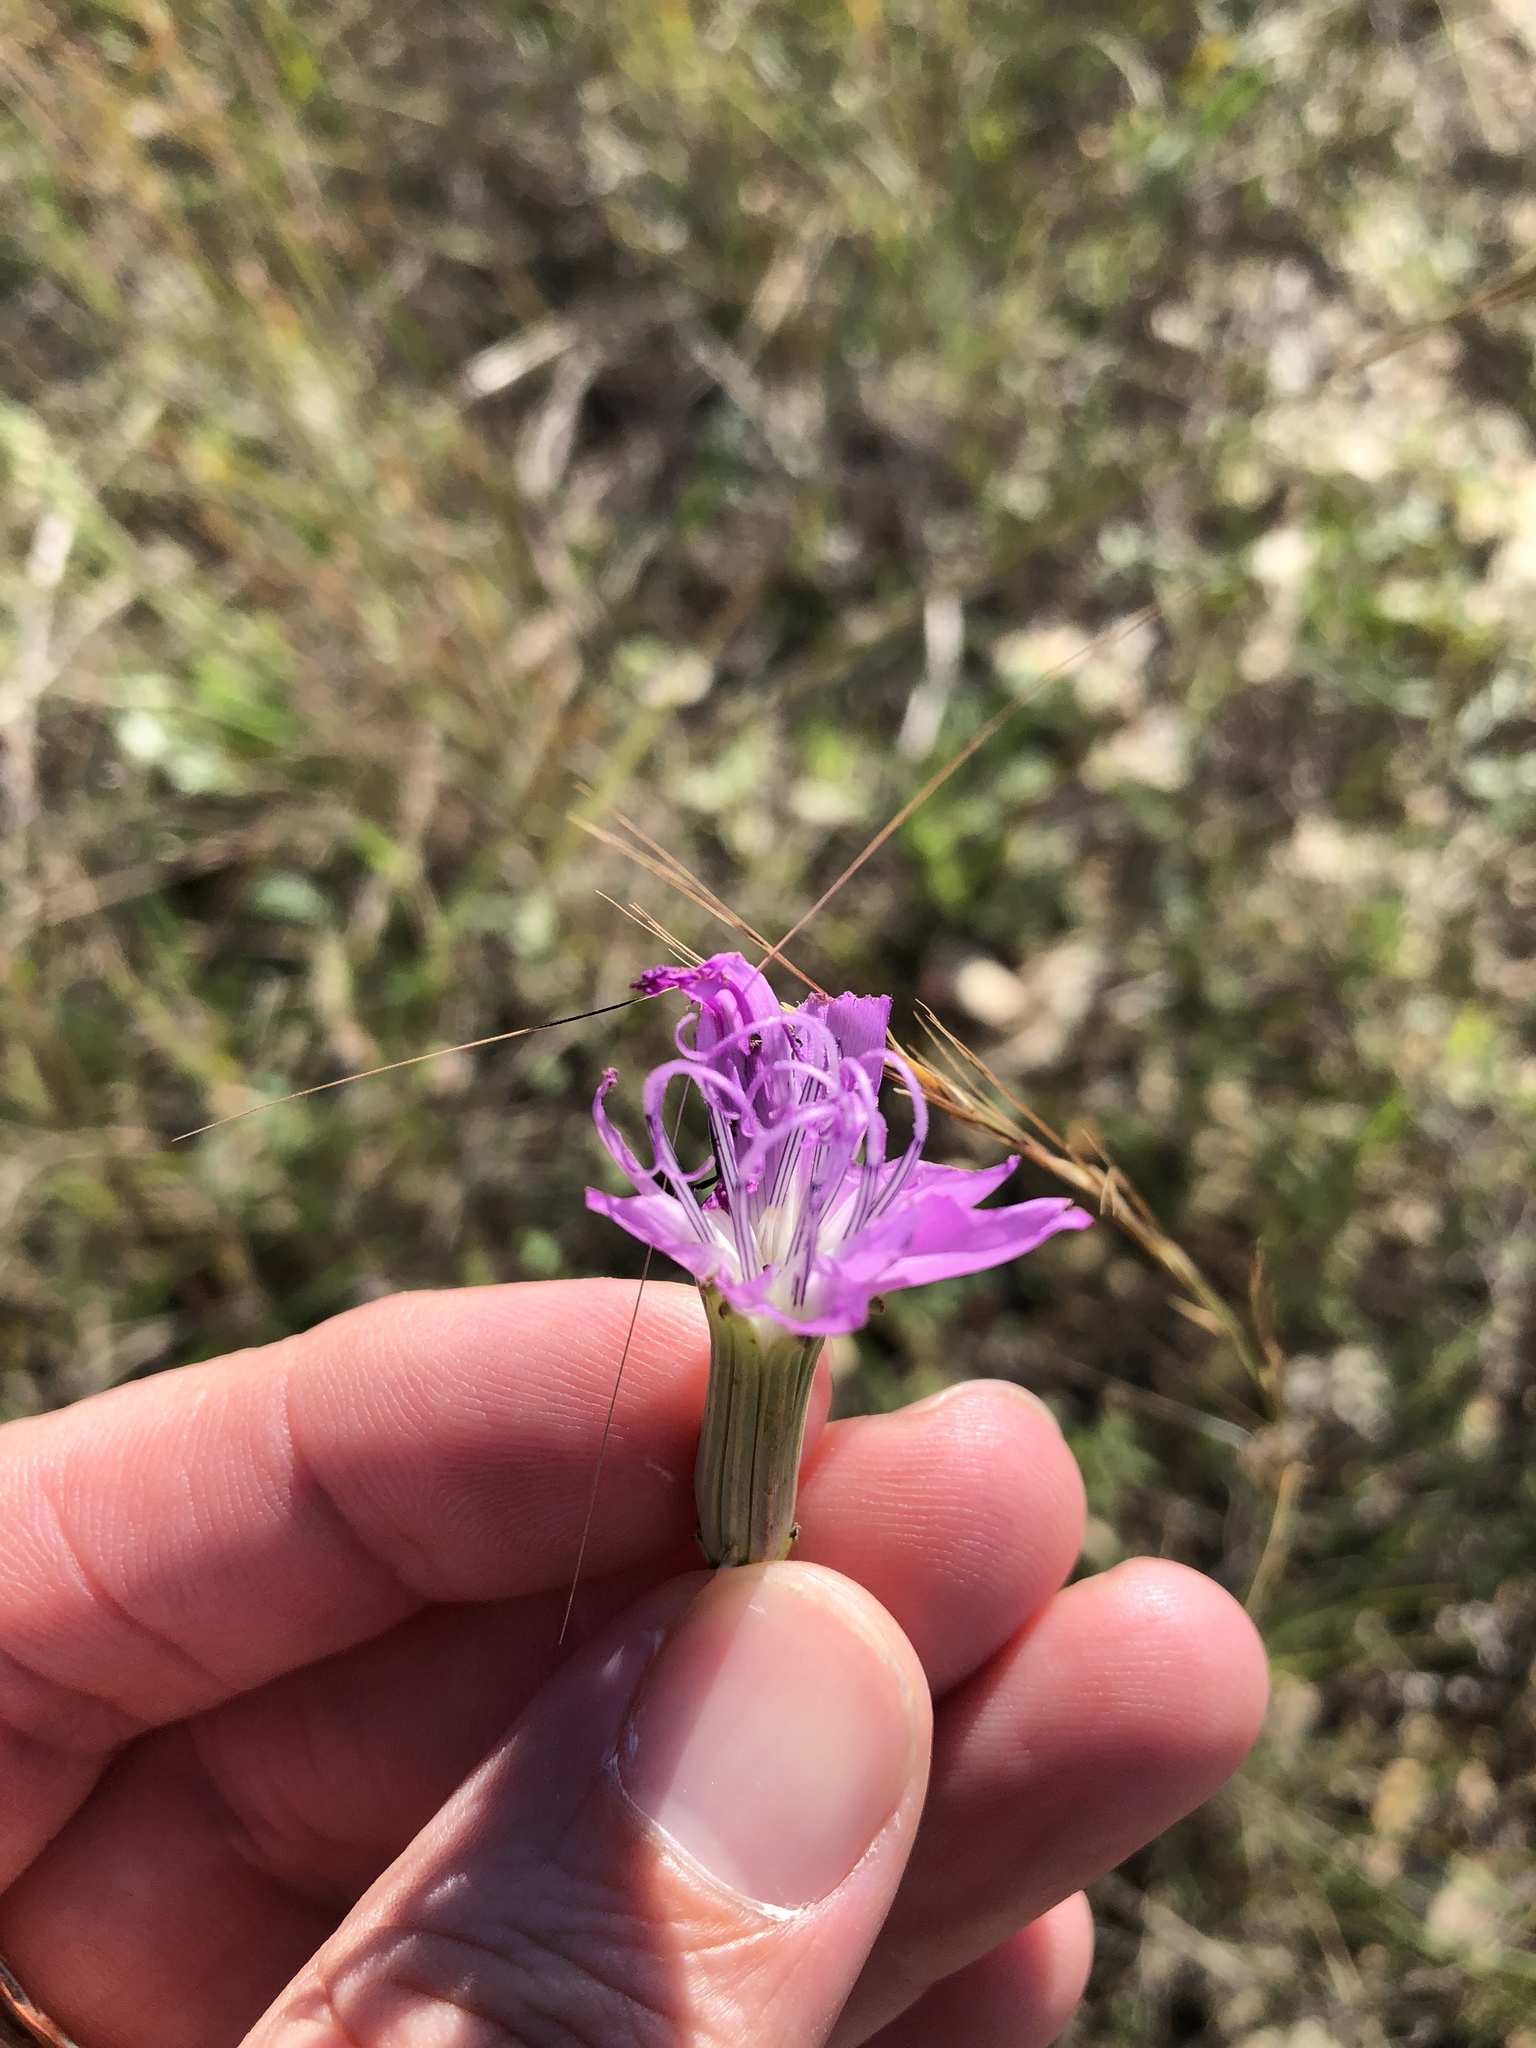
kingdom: Plantae
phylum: Tracheophyta
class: Magnoliopsida
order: Asterales
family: Asteraceae
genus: Lygodesmia
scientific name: Lygodesmia texana
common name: Texas skeleton-plant
